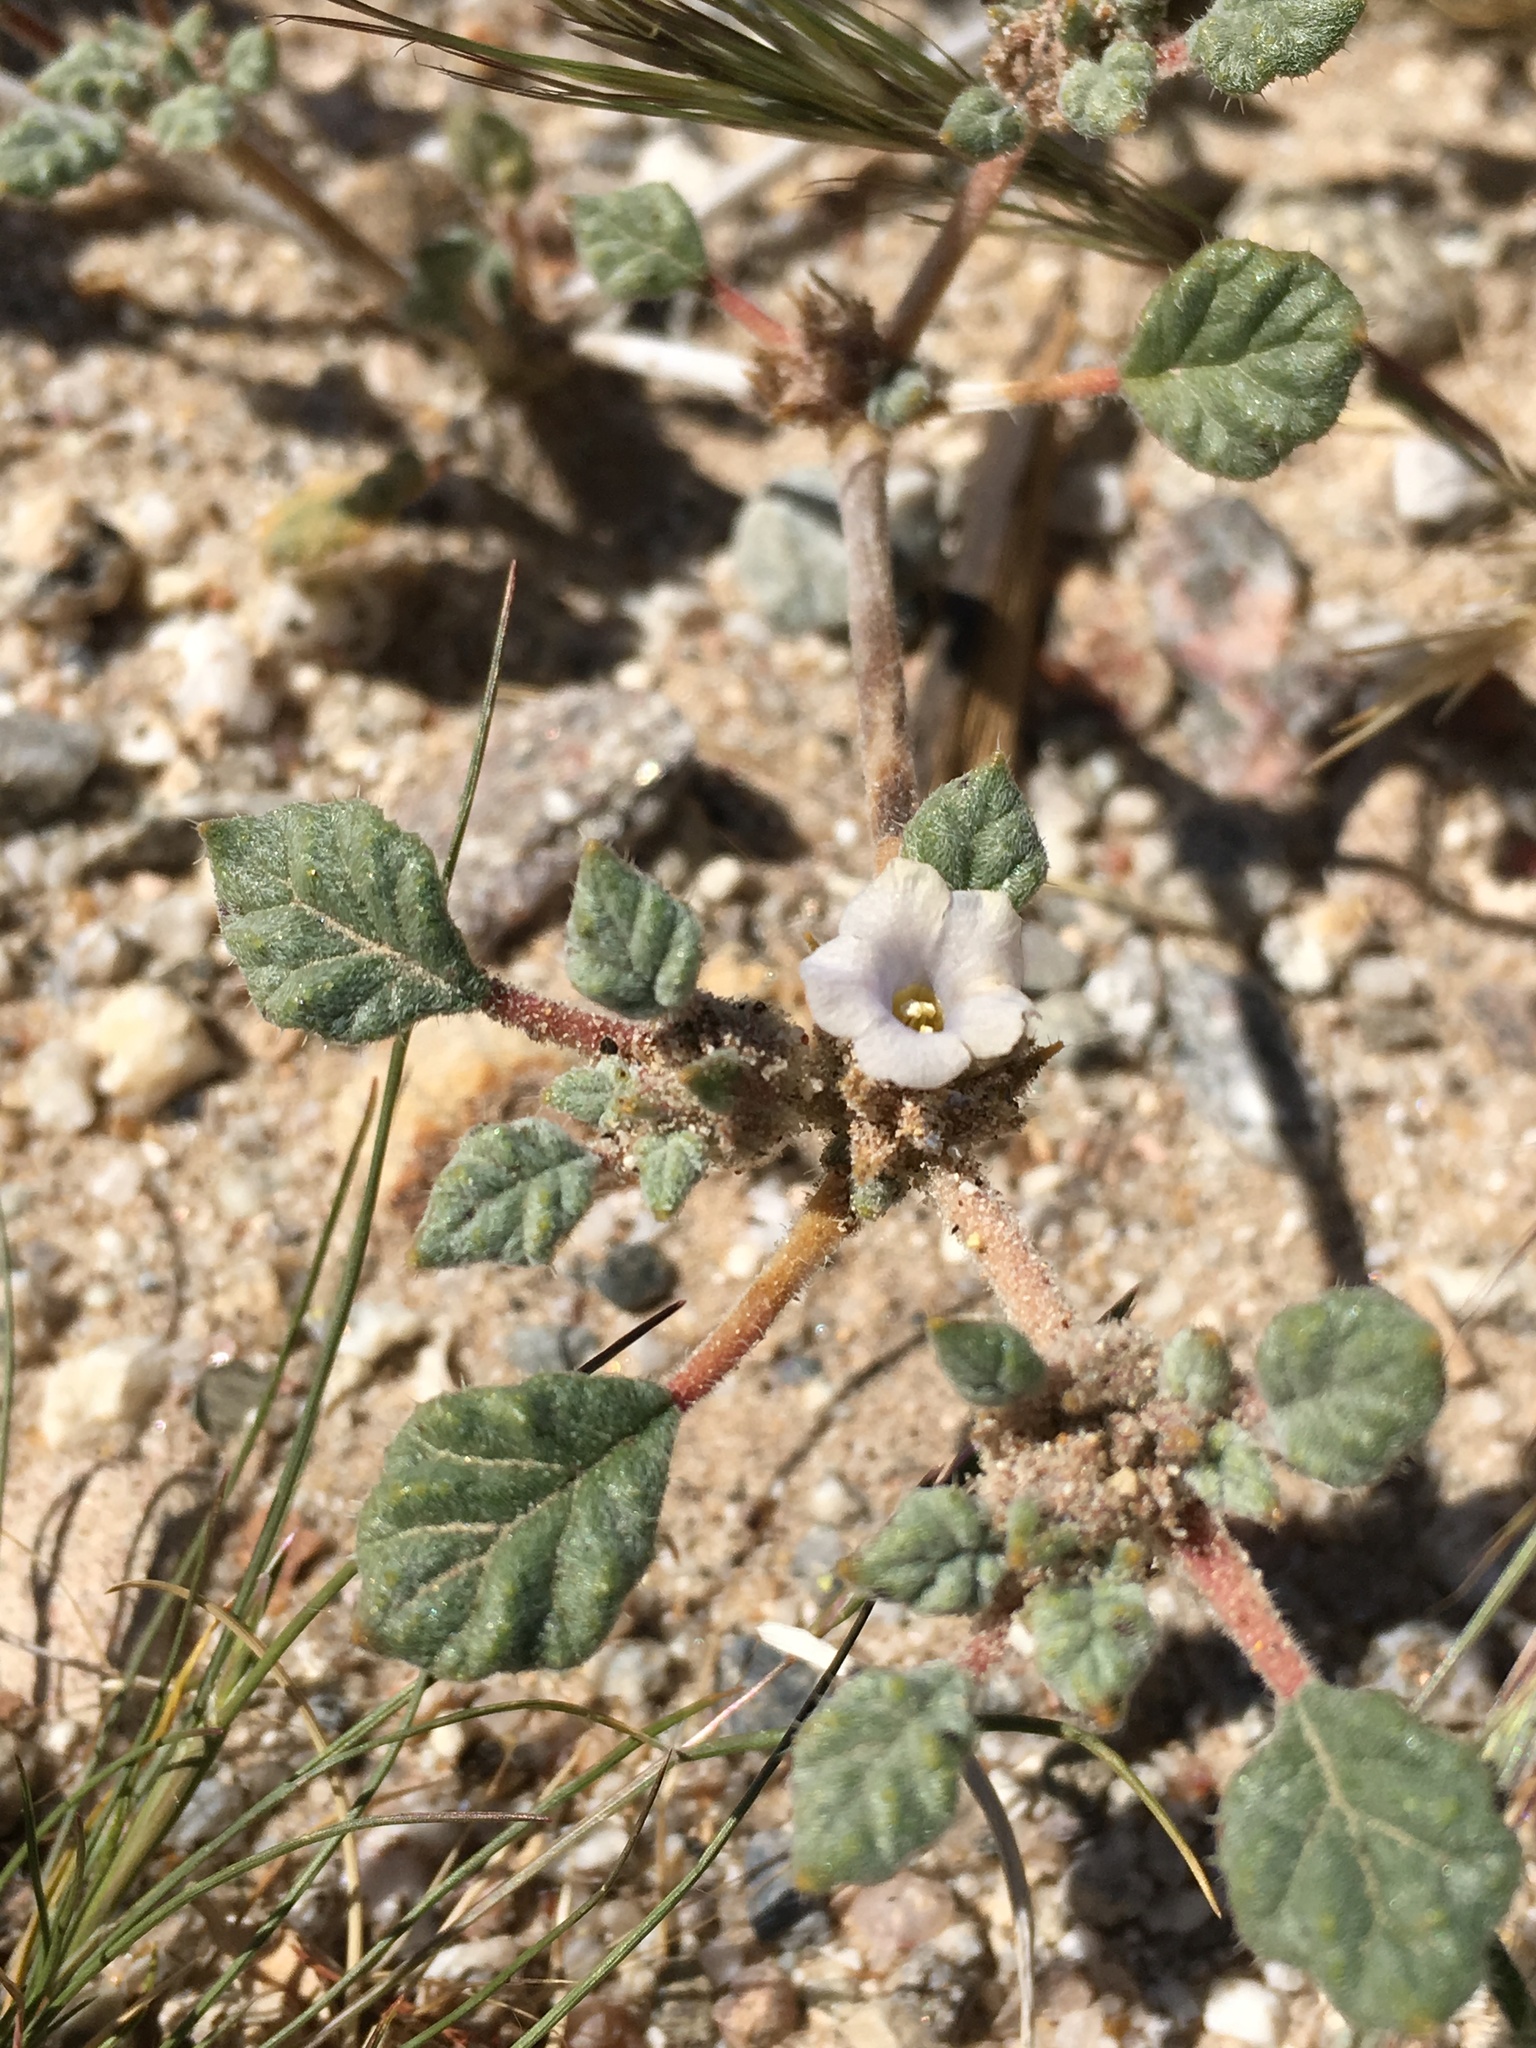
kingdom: Plantae
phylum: Tracheophyta
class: Magnoliopsida
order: Boraginales
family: Ehretiaceae
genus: Tiquilia
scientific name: Tiquilia palmeri
